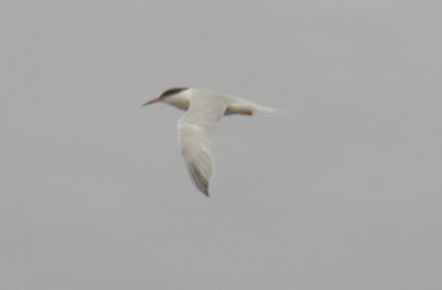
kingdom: Animalia
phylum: Chordata
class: Aves
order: Charadriiformes
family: Laridae
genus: Sterna
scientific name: Sterna dougallii
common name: Roseate tern
